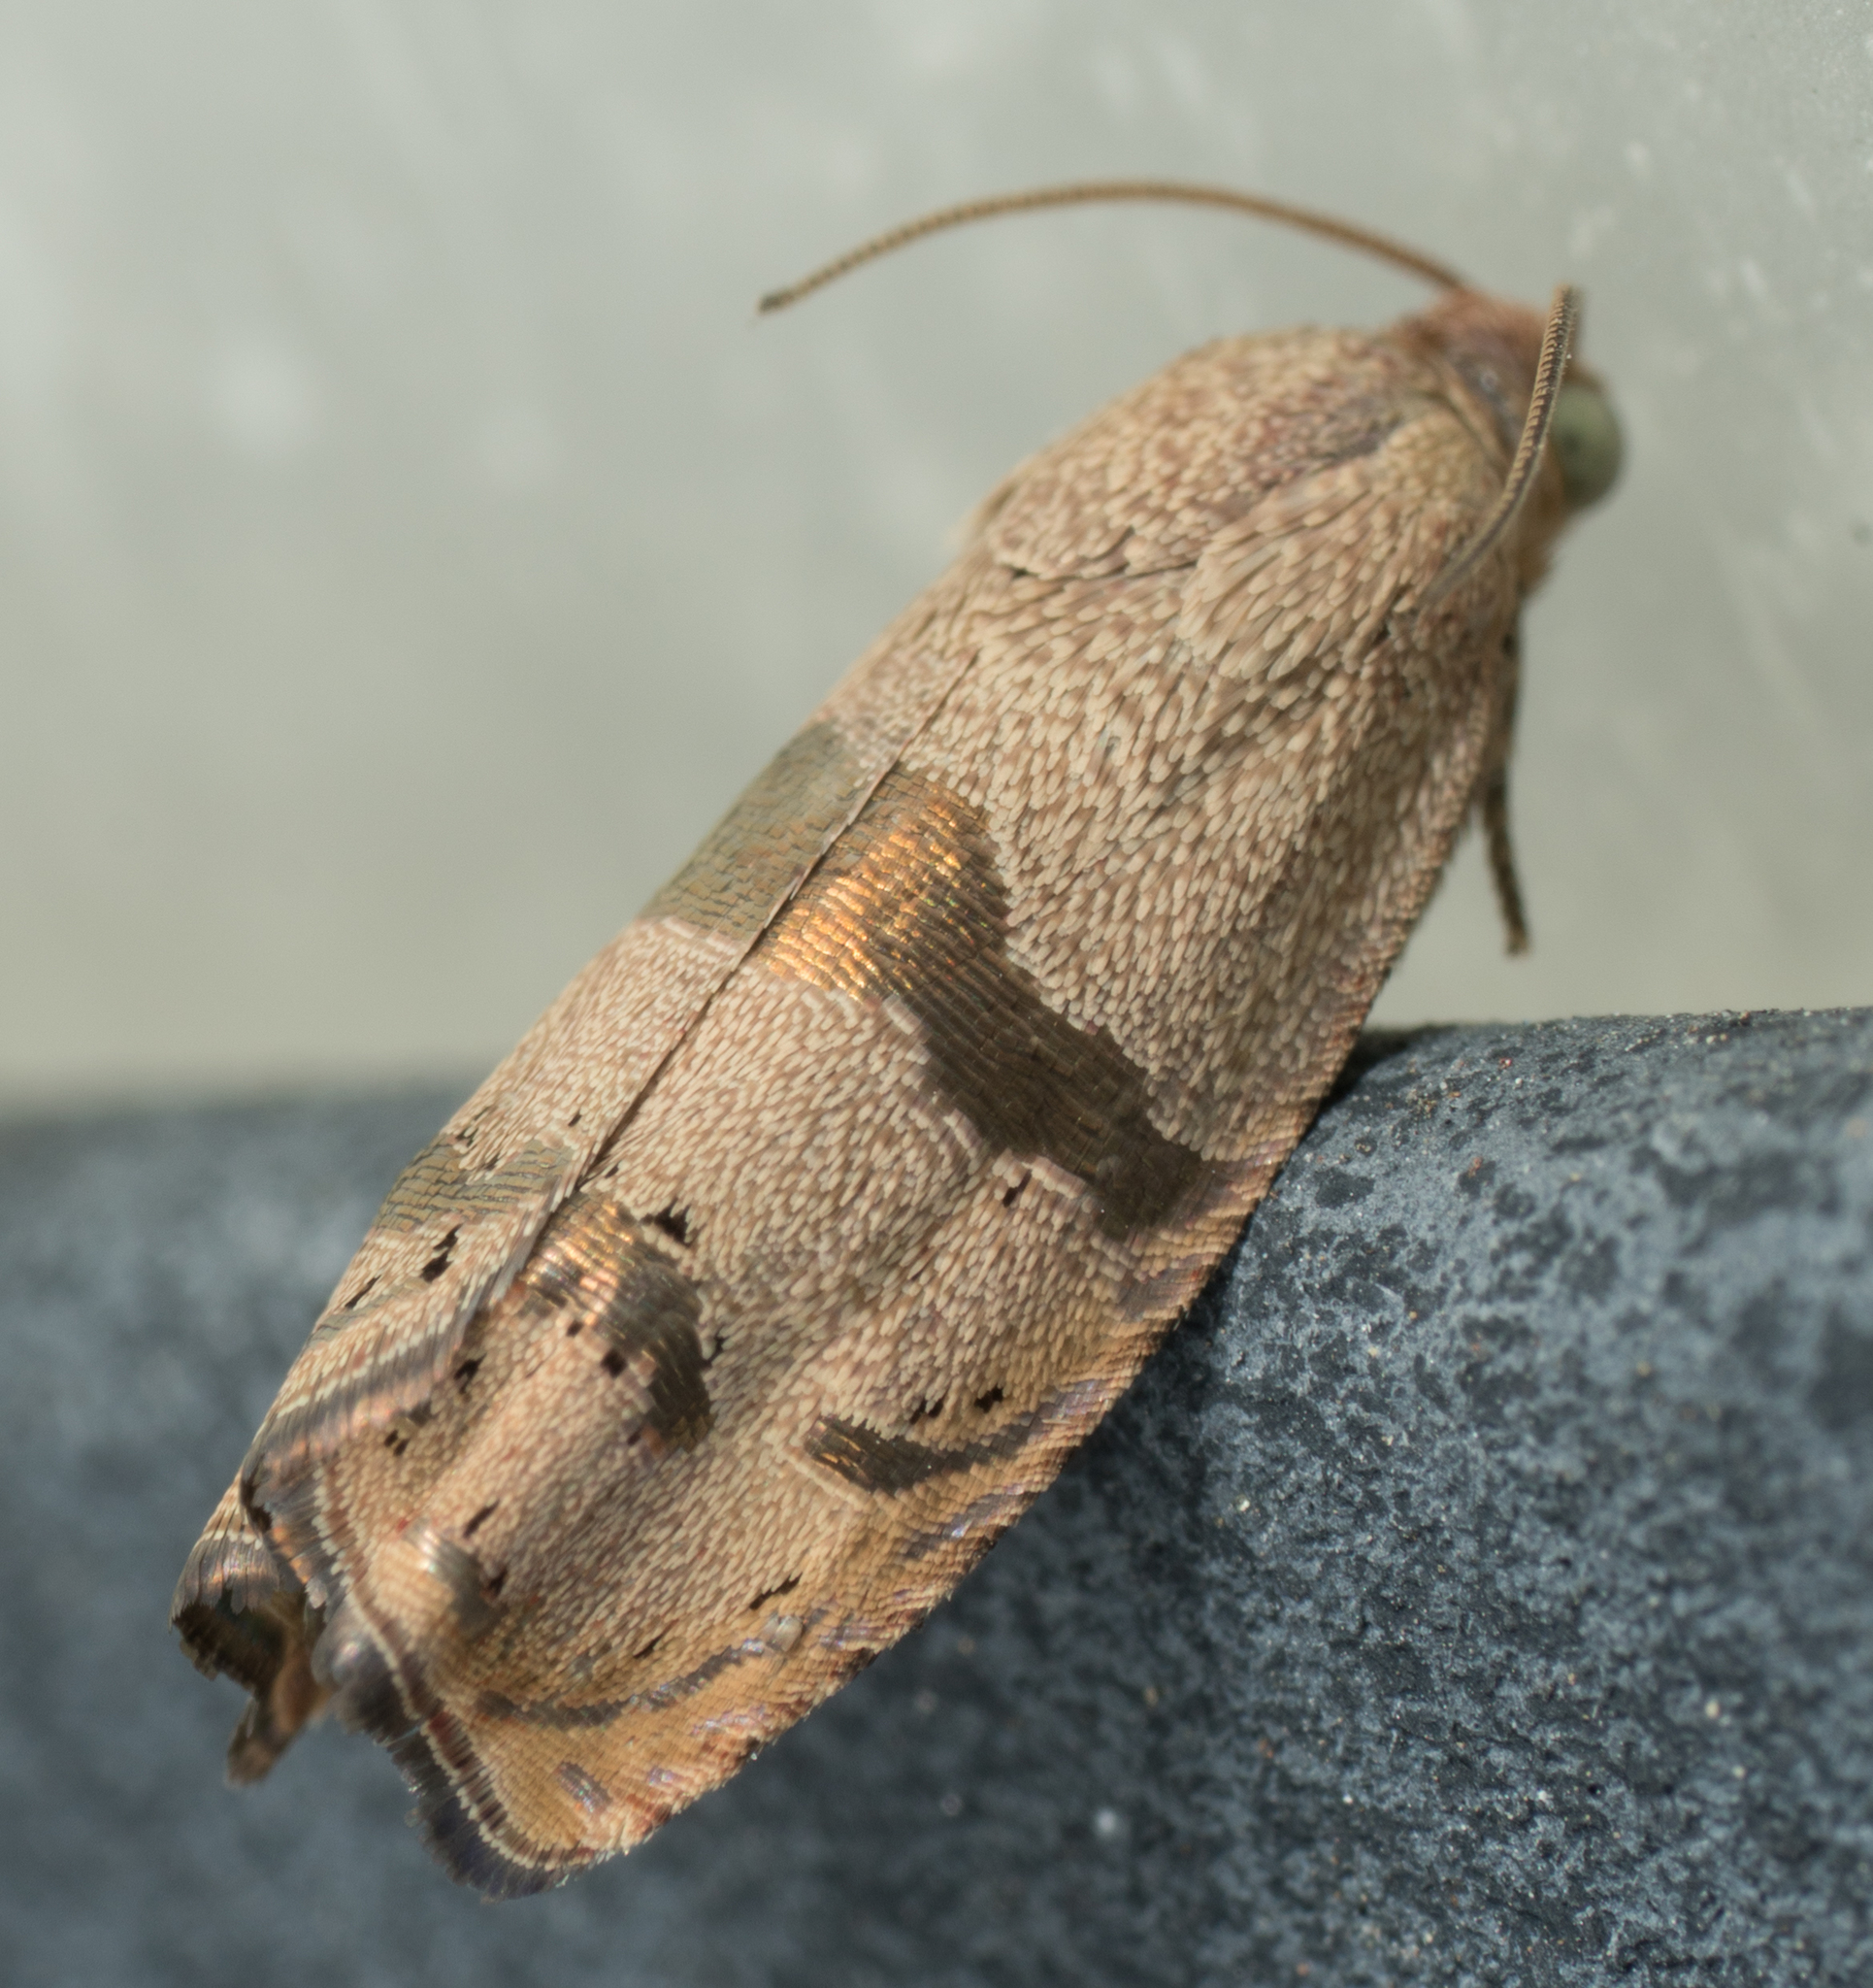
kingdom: Animalia
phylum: Arthropoda
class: Insecta
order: Lepidoptera
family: Tortricidae
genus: Cydia
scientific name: Cydia latiferreana
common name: Filbertworm moth
